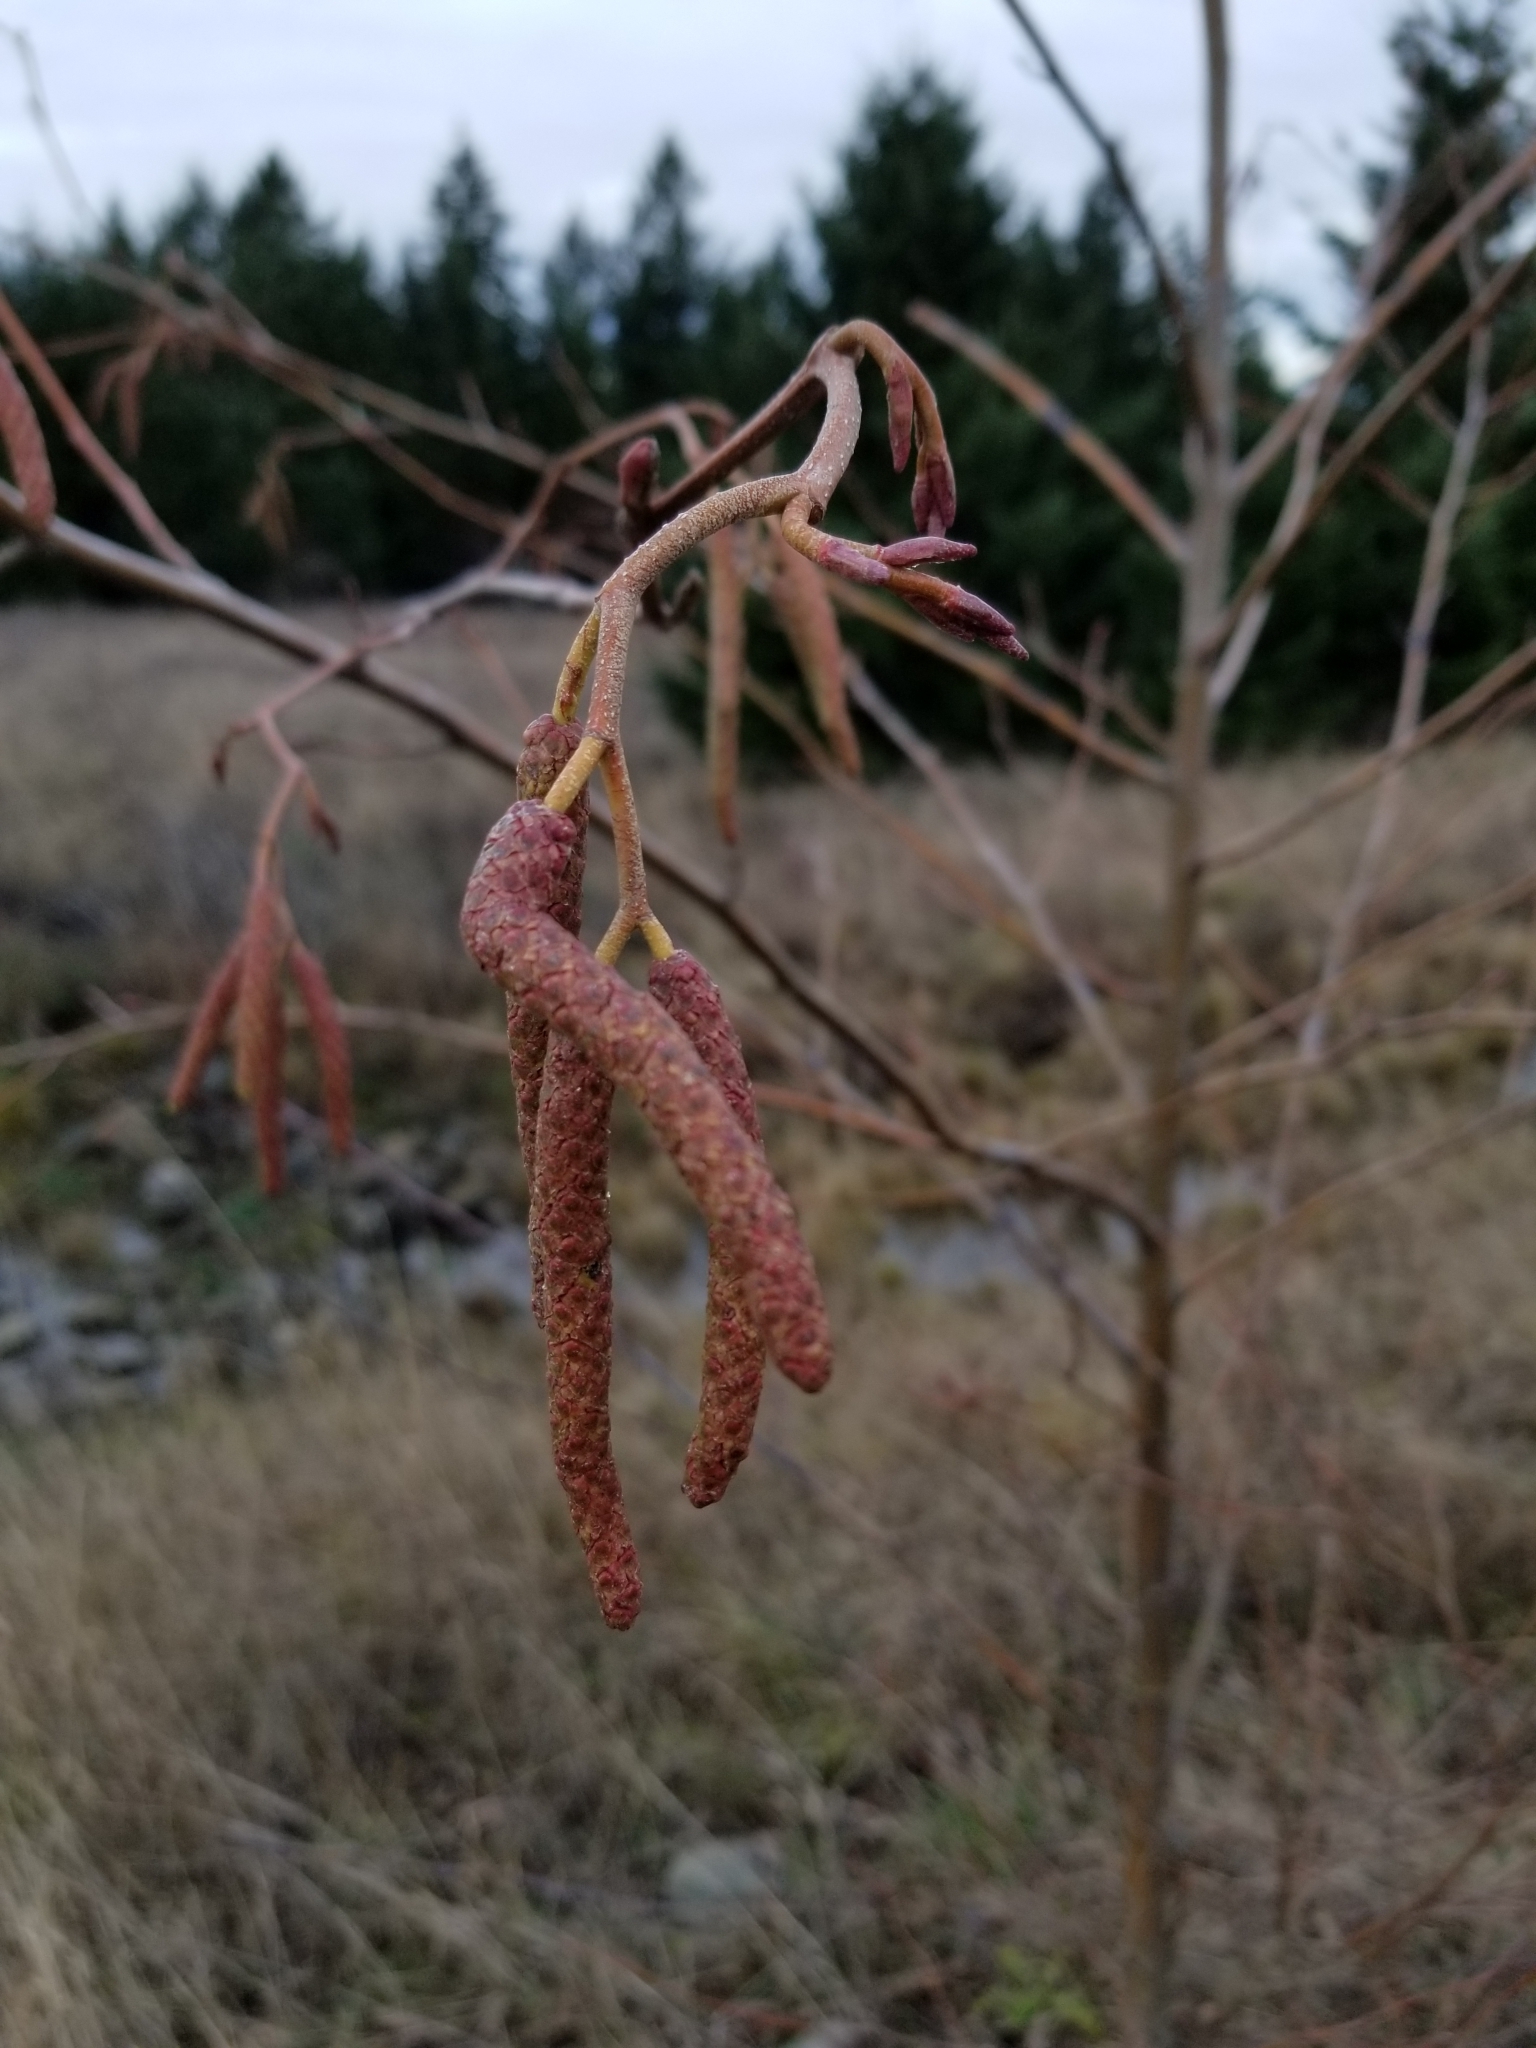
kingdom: Plantae
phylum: Tracheophyta
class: Magnoliopsida
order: Fagales
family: Betulaceae
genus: Alnus
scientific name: Alnus rubra
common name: Red alder
